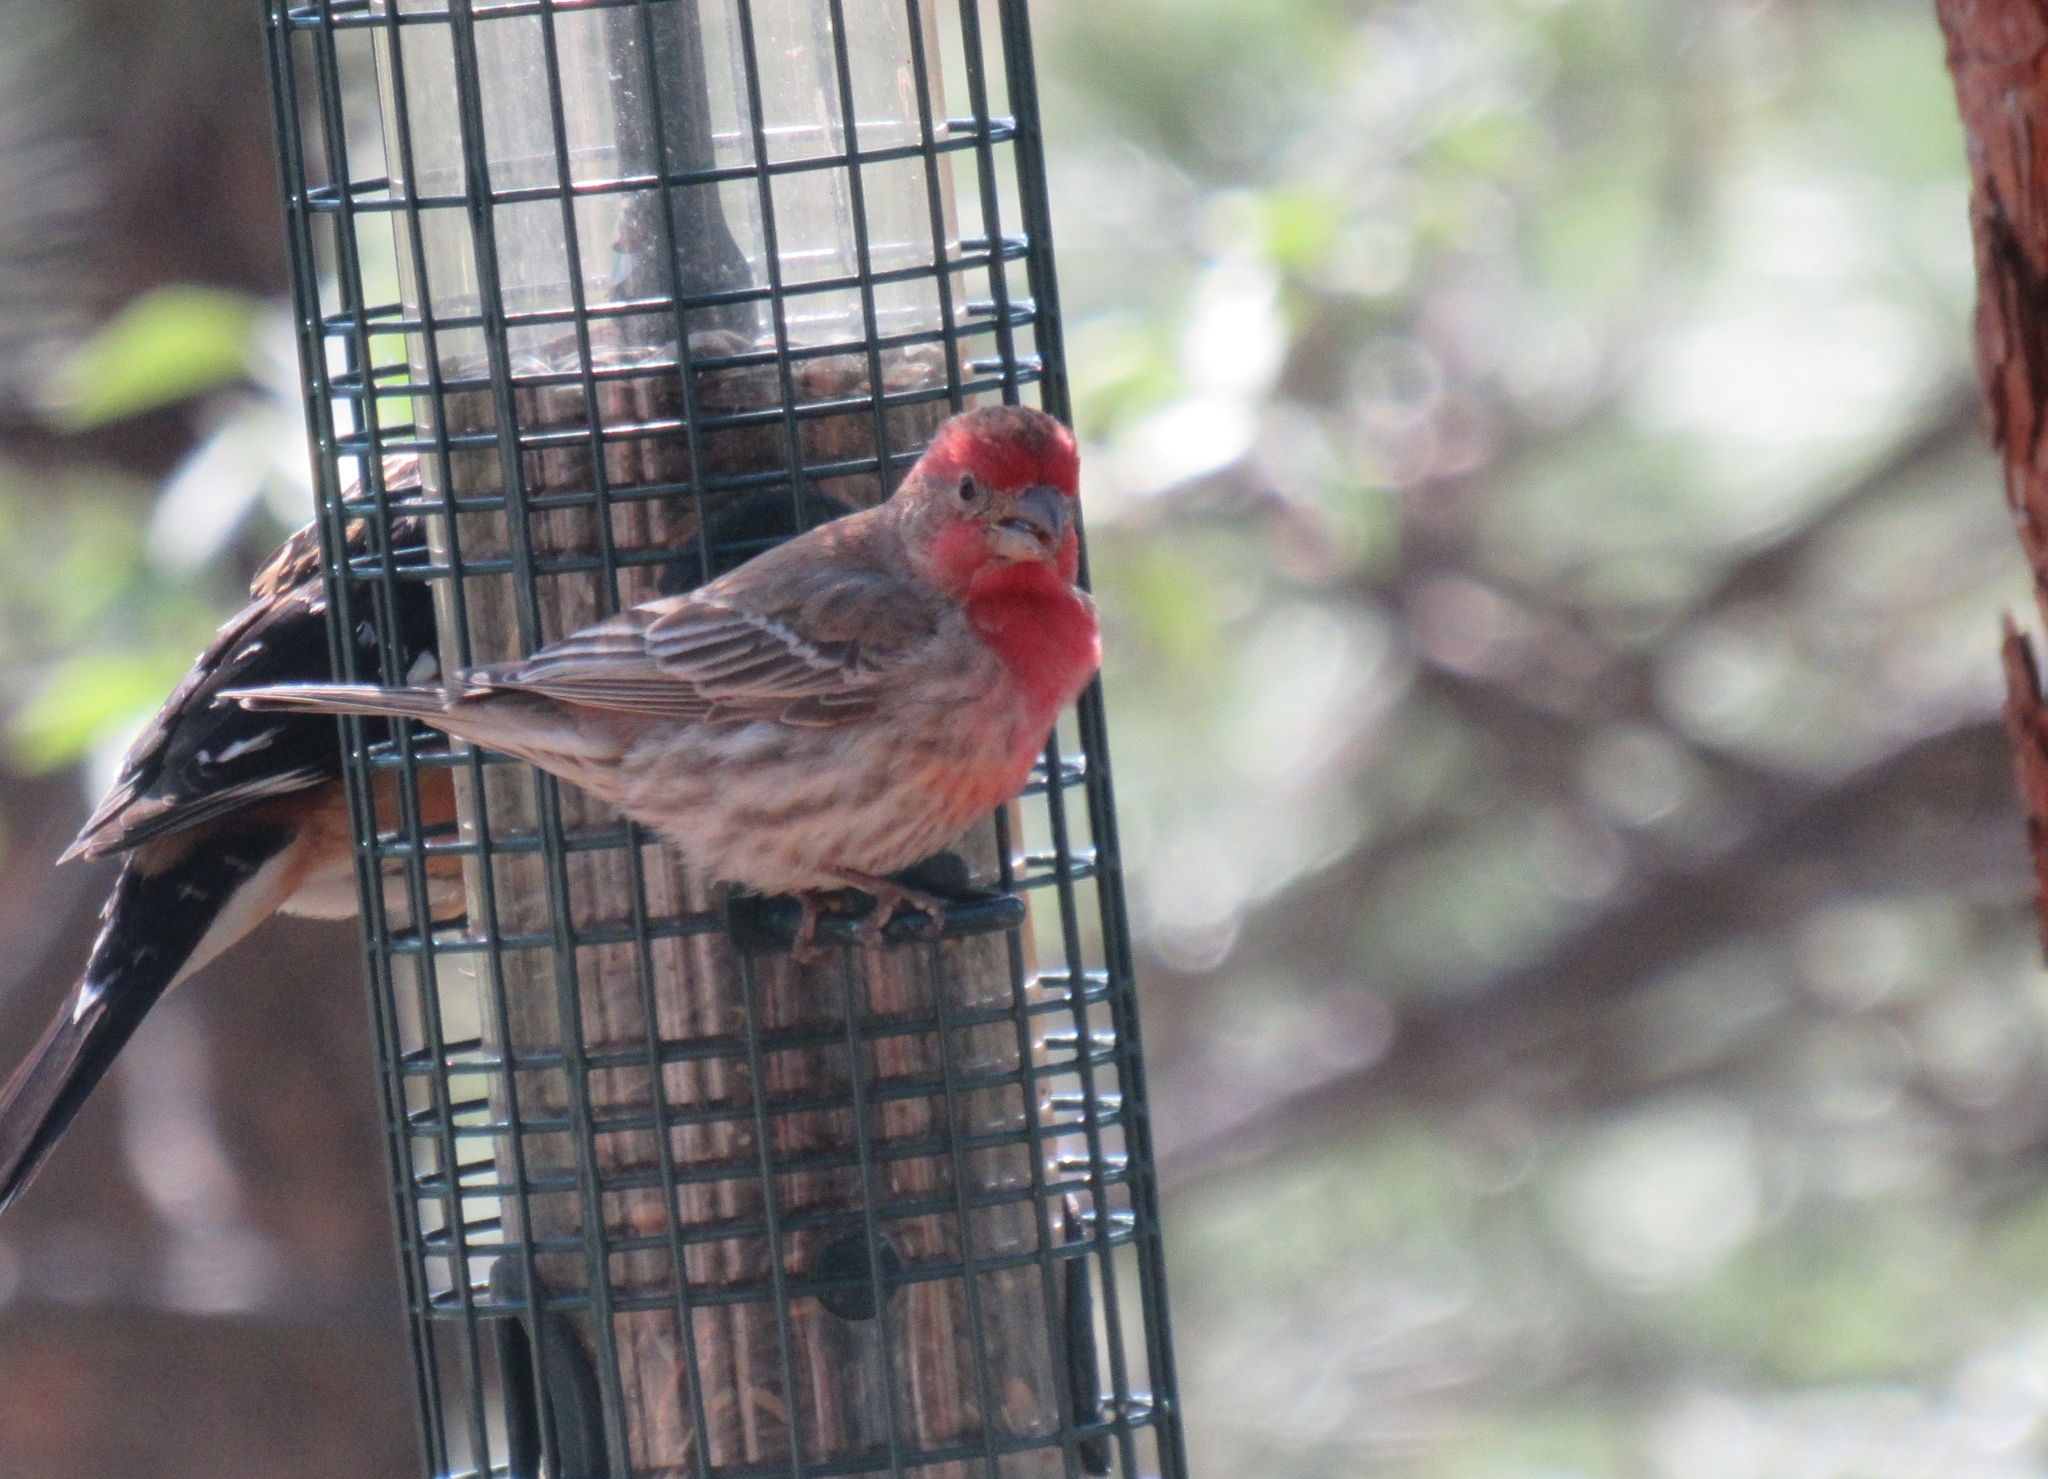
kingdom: Animalia
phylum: Chordata
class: Aves
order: Passeriformes
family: Fringillidae
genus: Haemorhous
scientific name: Haemorhous mexicanus
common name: House finch
